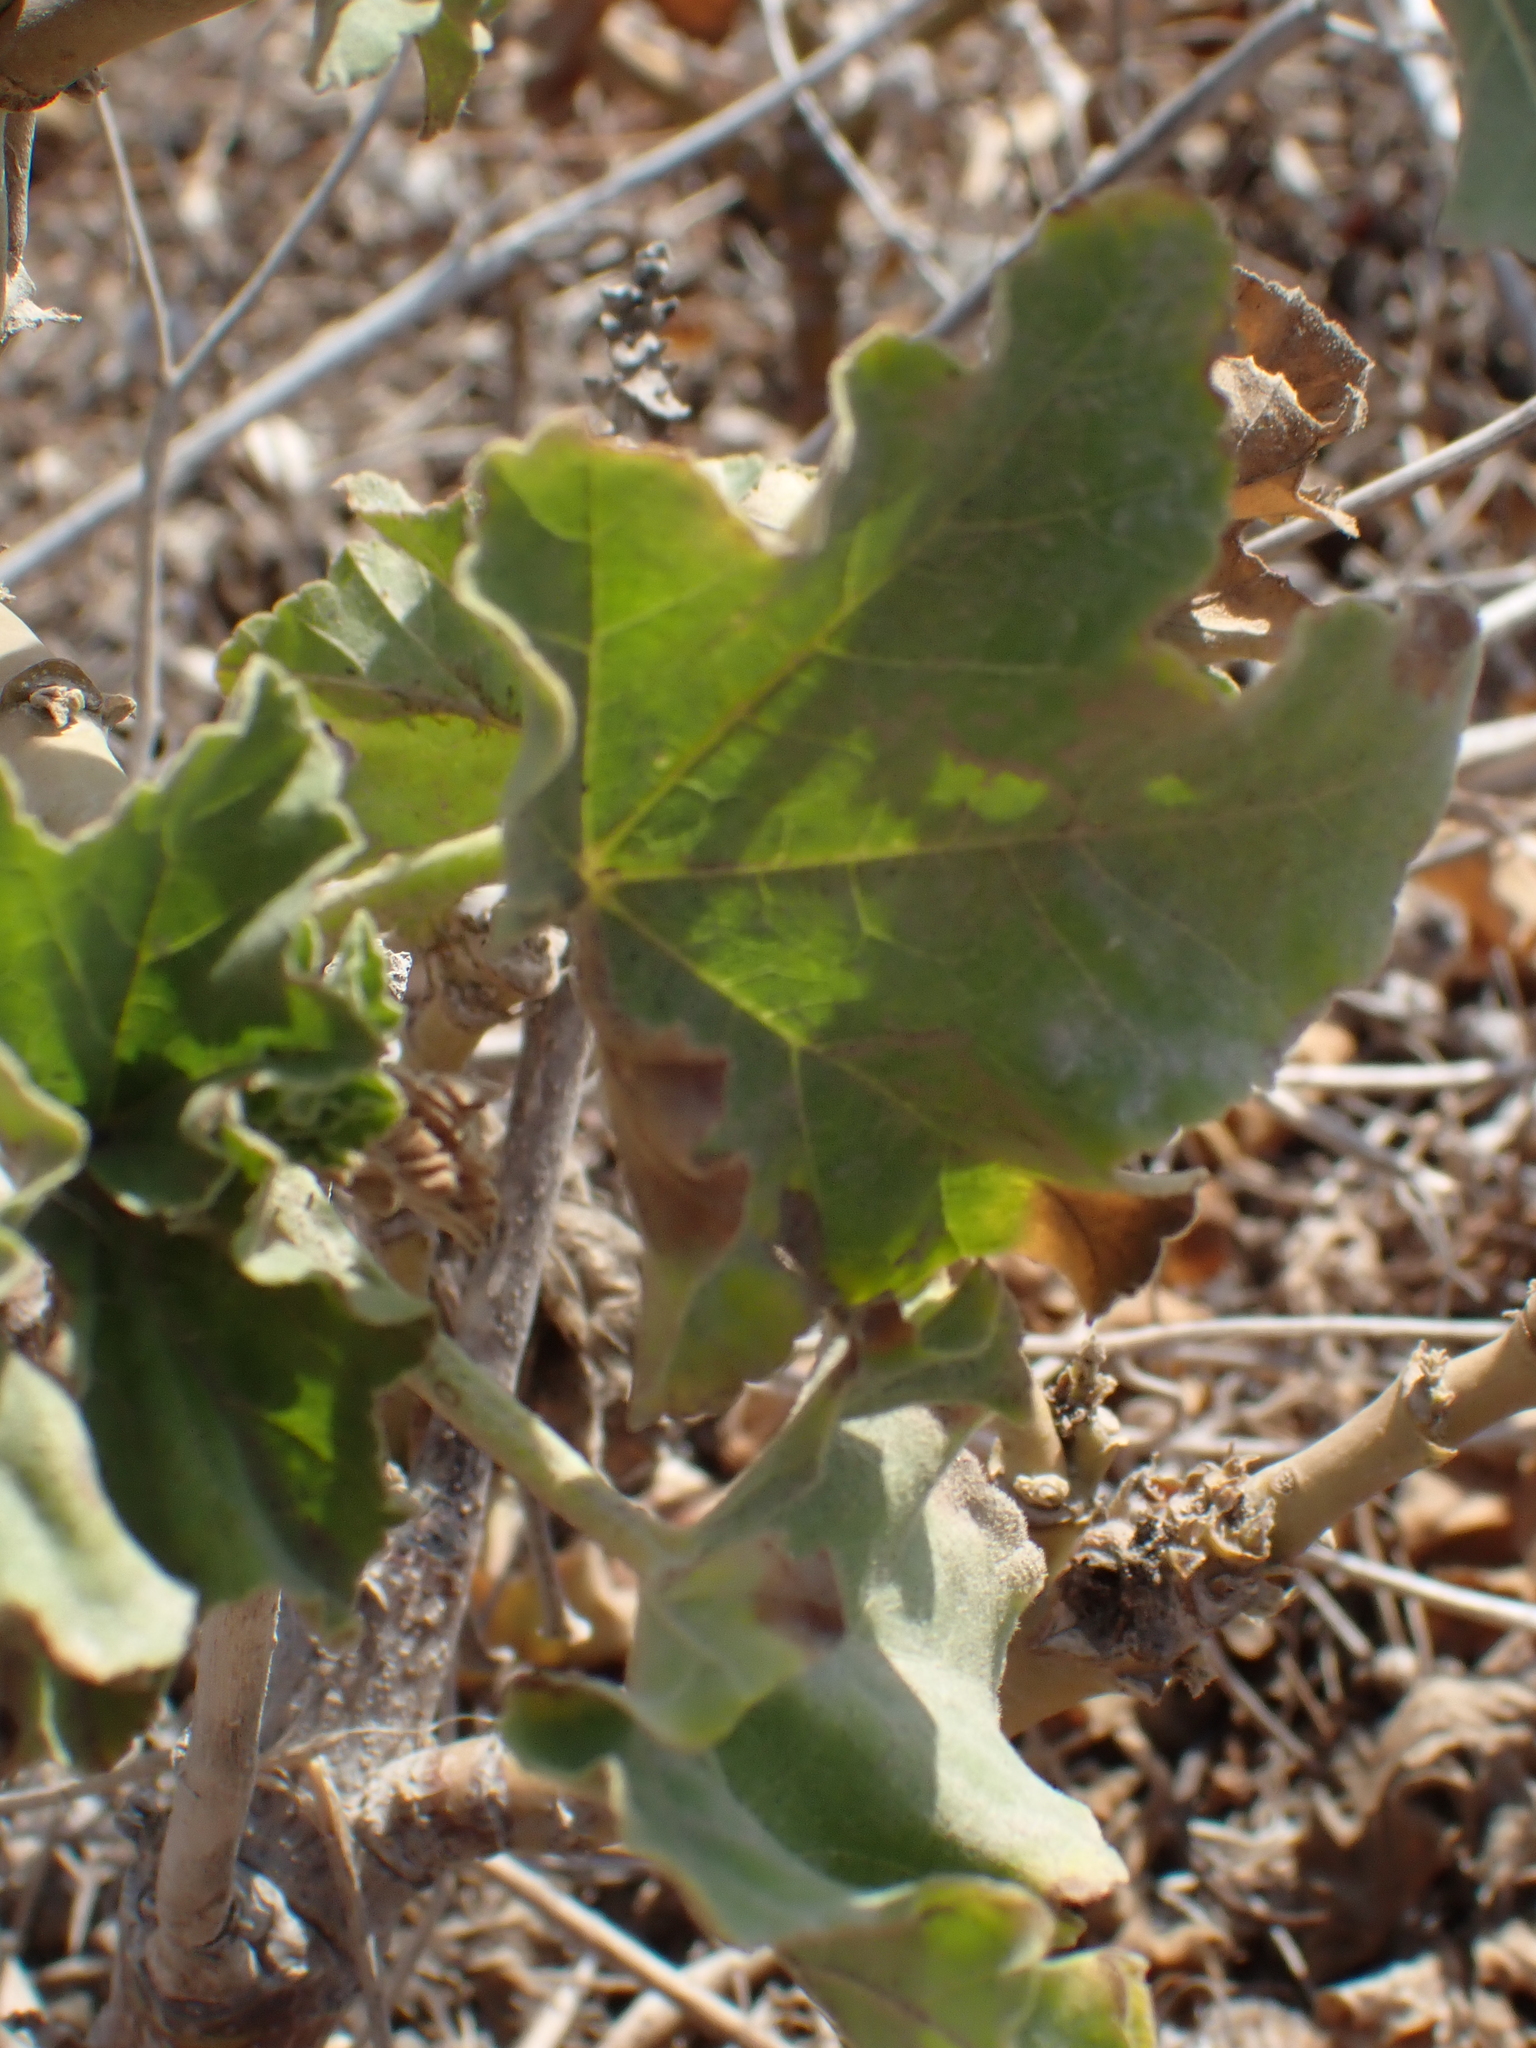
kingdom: Plantae
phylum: Tracheophyta
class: Magnoliopsida
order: Malvales
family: Malvaceae
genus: Malva
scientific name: Malva arborea
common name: Tree mallow
